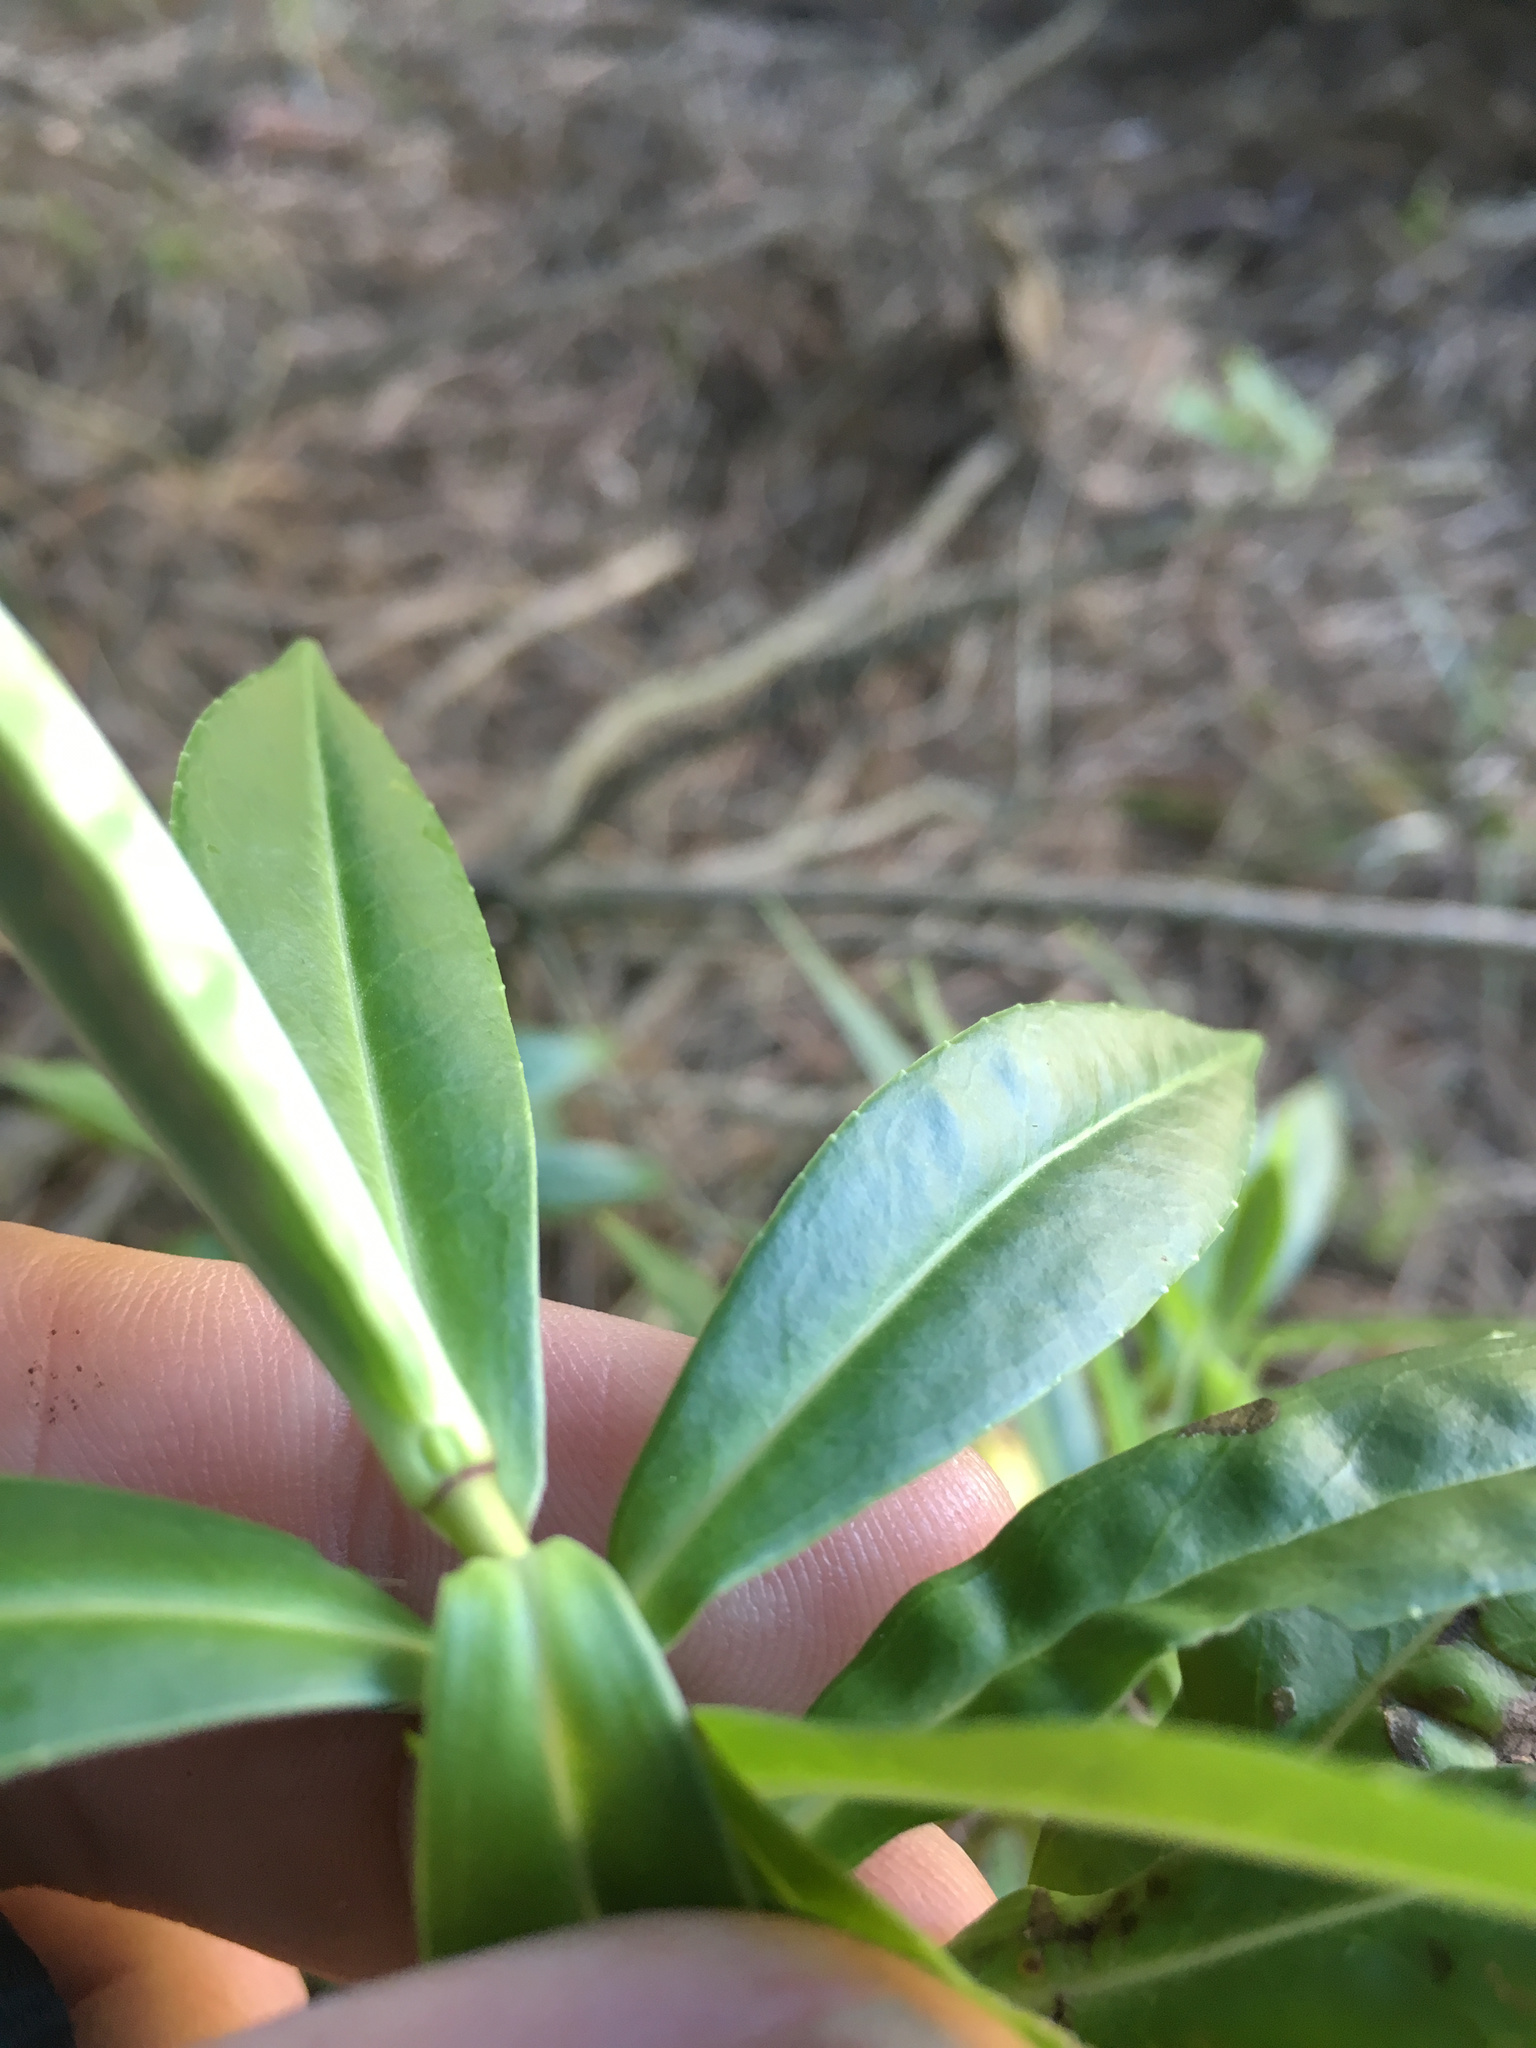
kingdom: Plantae
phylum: Tracheophyta
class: Magnoliopsida
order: Lamiales
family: Plantaginaceae
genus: Veronica
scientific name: Veronica salicifolia
